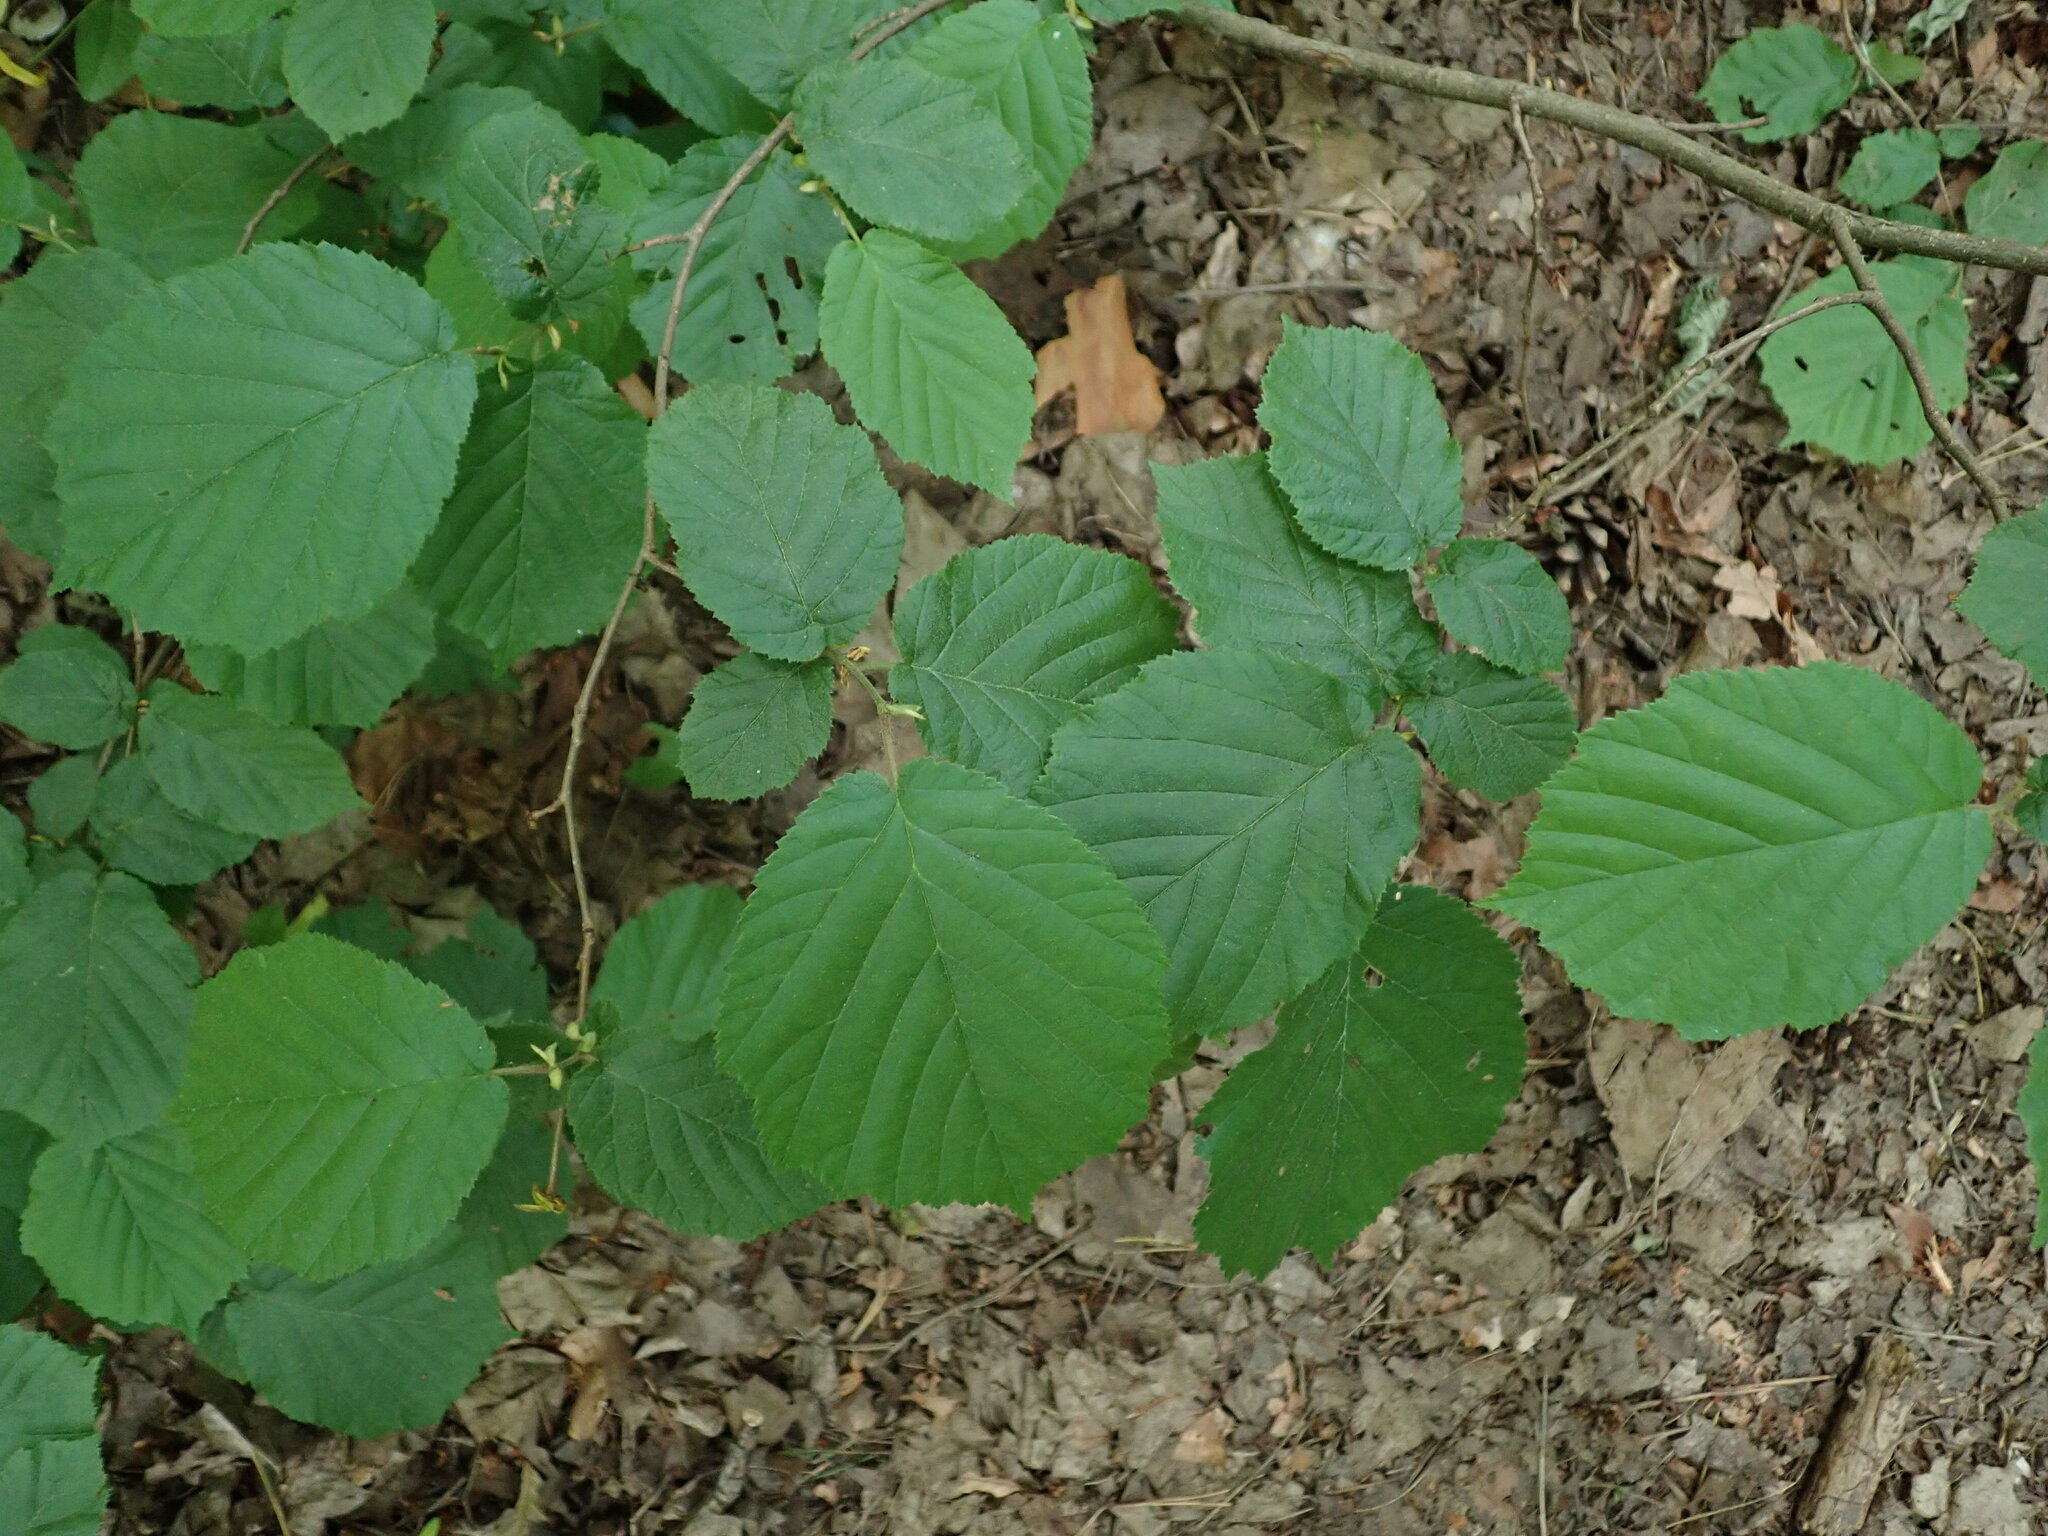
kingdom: Plantae
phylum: Tracheophyta
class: Magnoliopsida
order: Fagales
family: Betulaceae
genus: Corylus
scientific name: Corylus avellana
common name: European hazel
